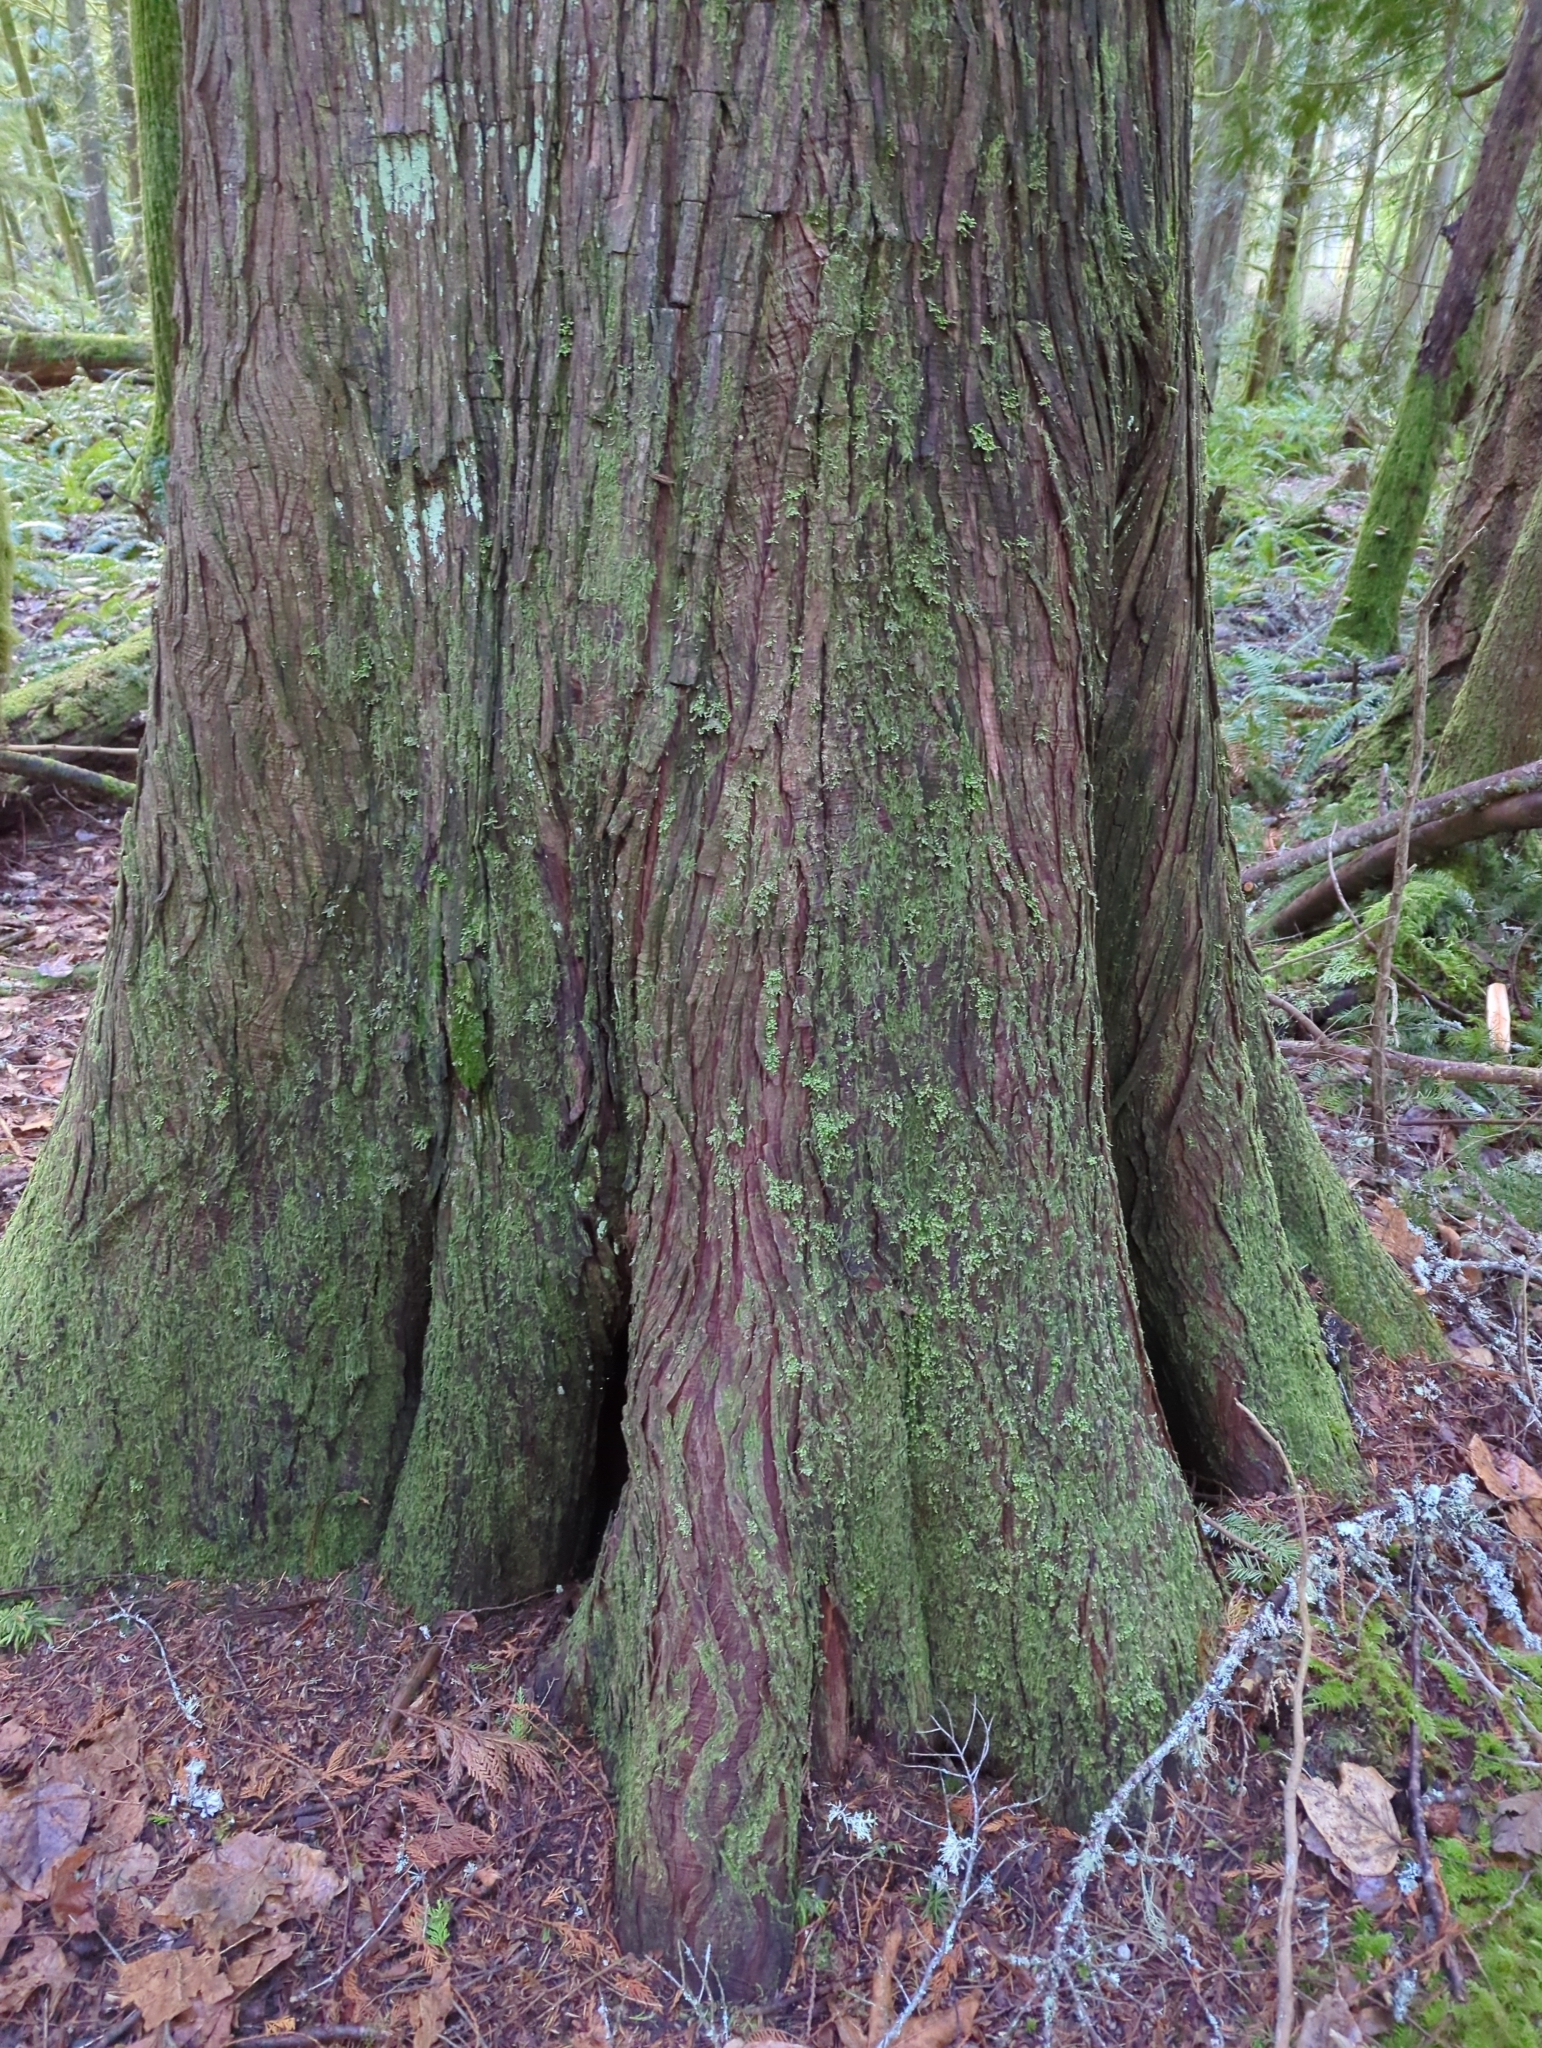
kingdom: Plantae
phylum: Tracheophyta
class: Pinopsida
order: Pinales
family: Cupressaceae
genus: Thuja
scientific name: Thuja plicata
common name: Western red-cedar
